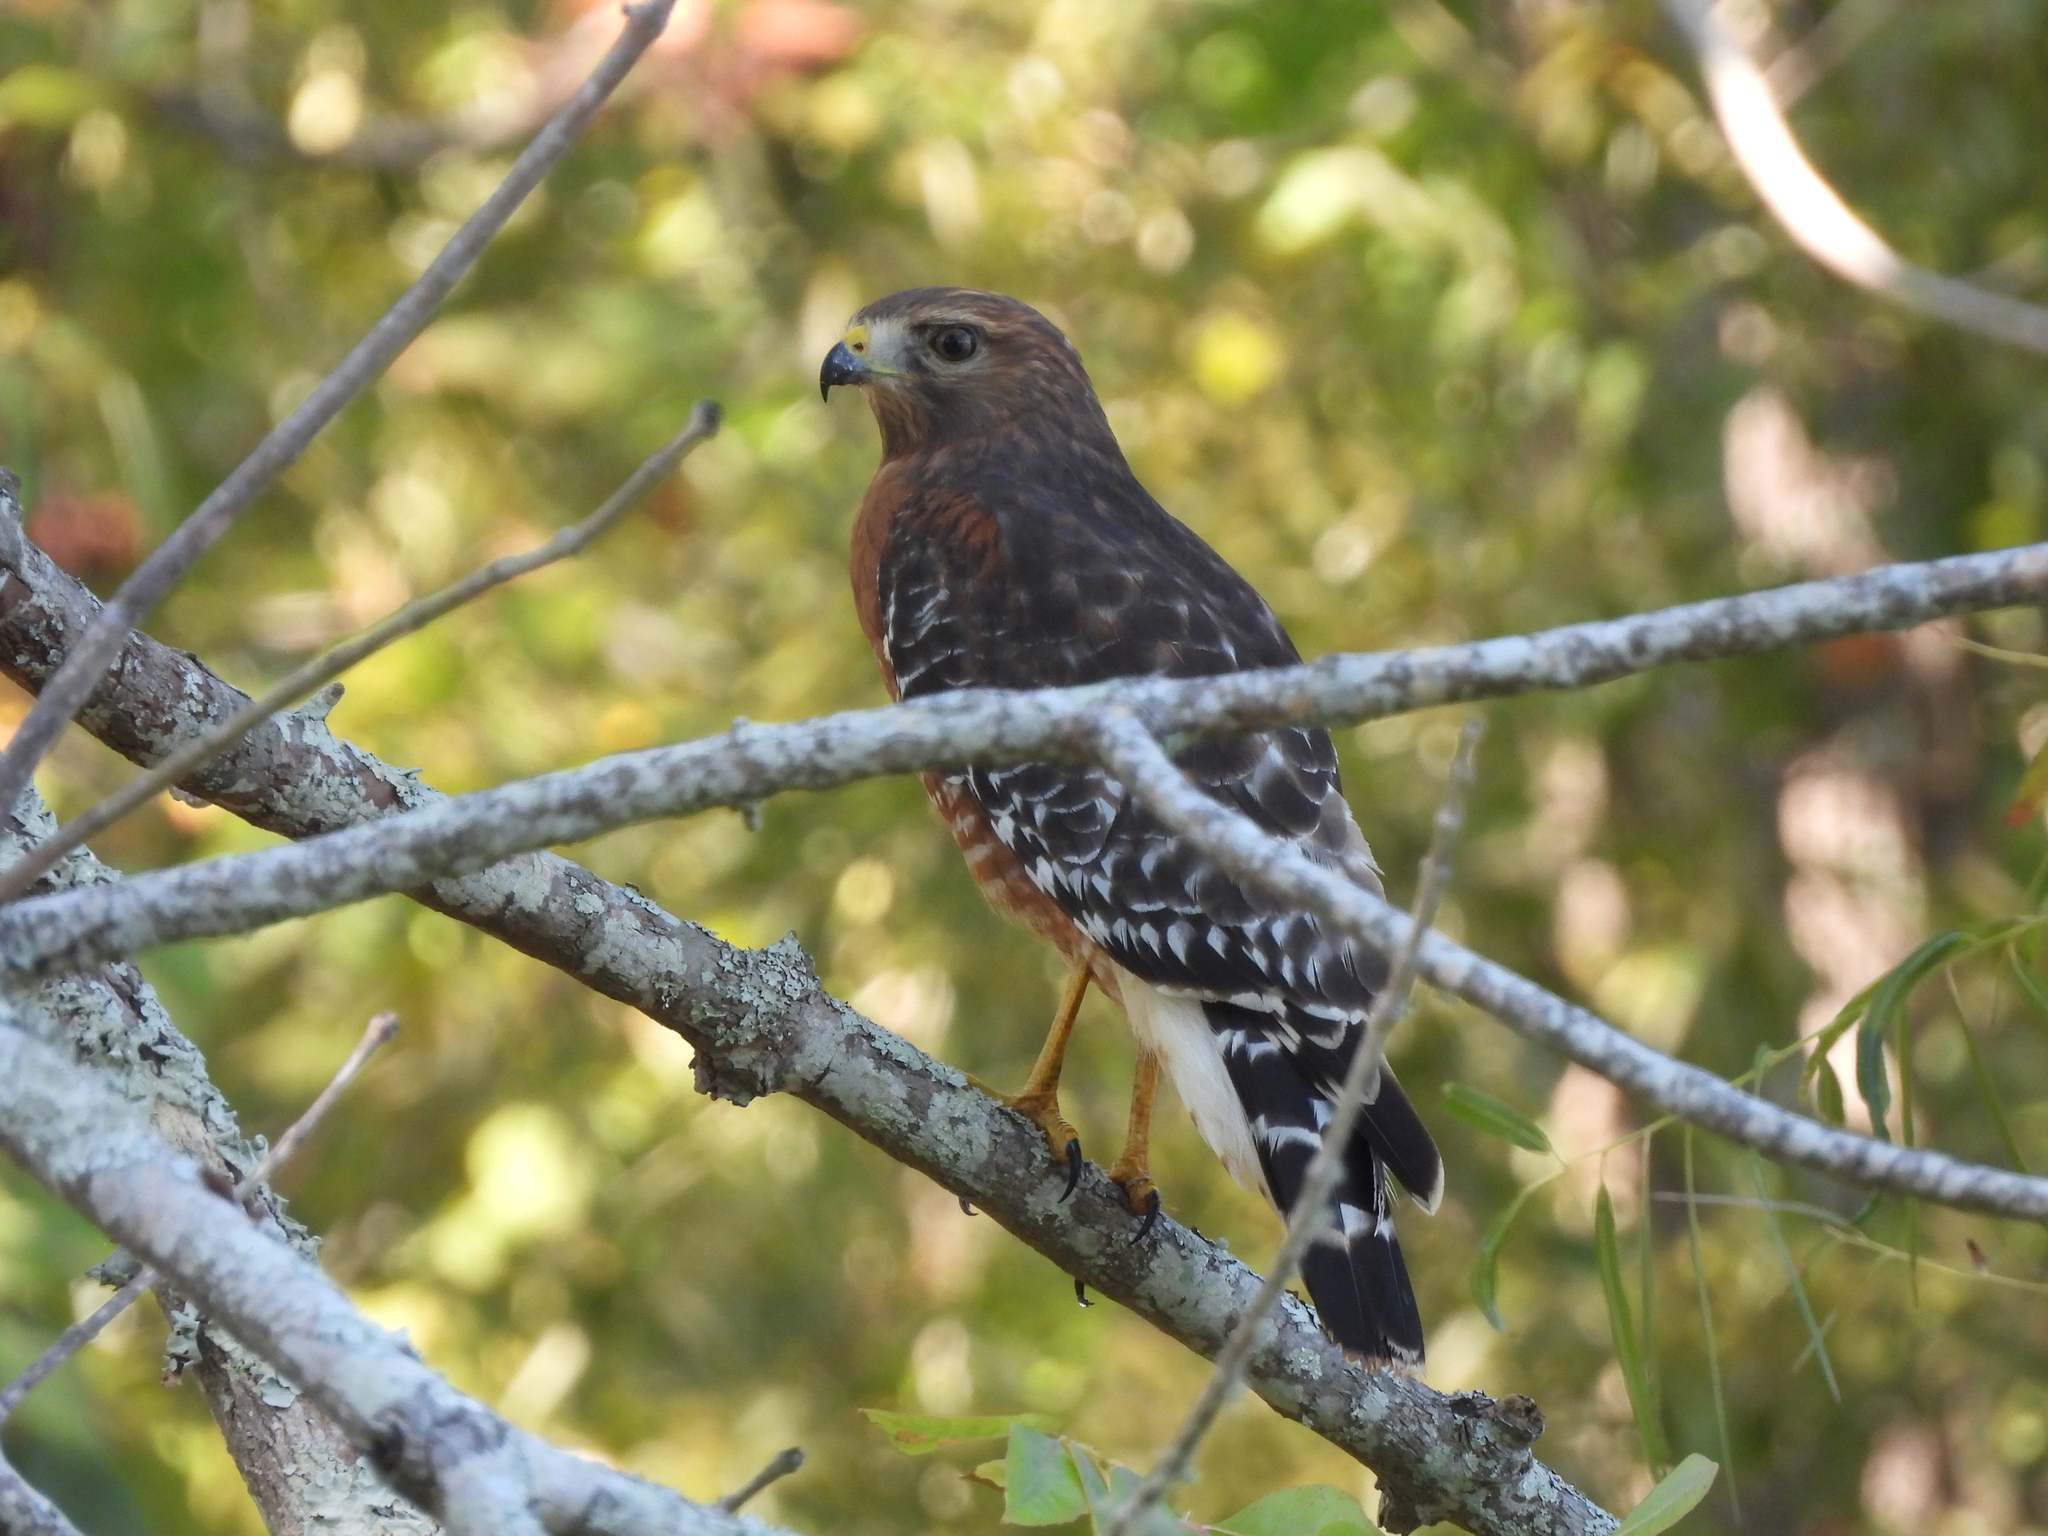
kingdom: Animalia
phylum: Chordata
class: Aves
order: Accipitriformes
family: Accipitridae
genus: Buteo
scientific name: Buteo lineatus
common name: Red-shouldered hawk
